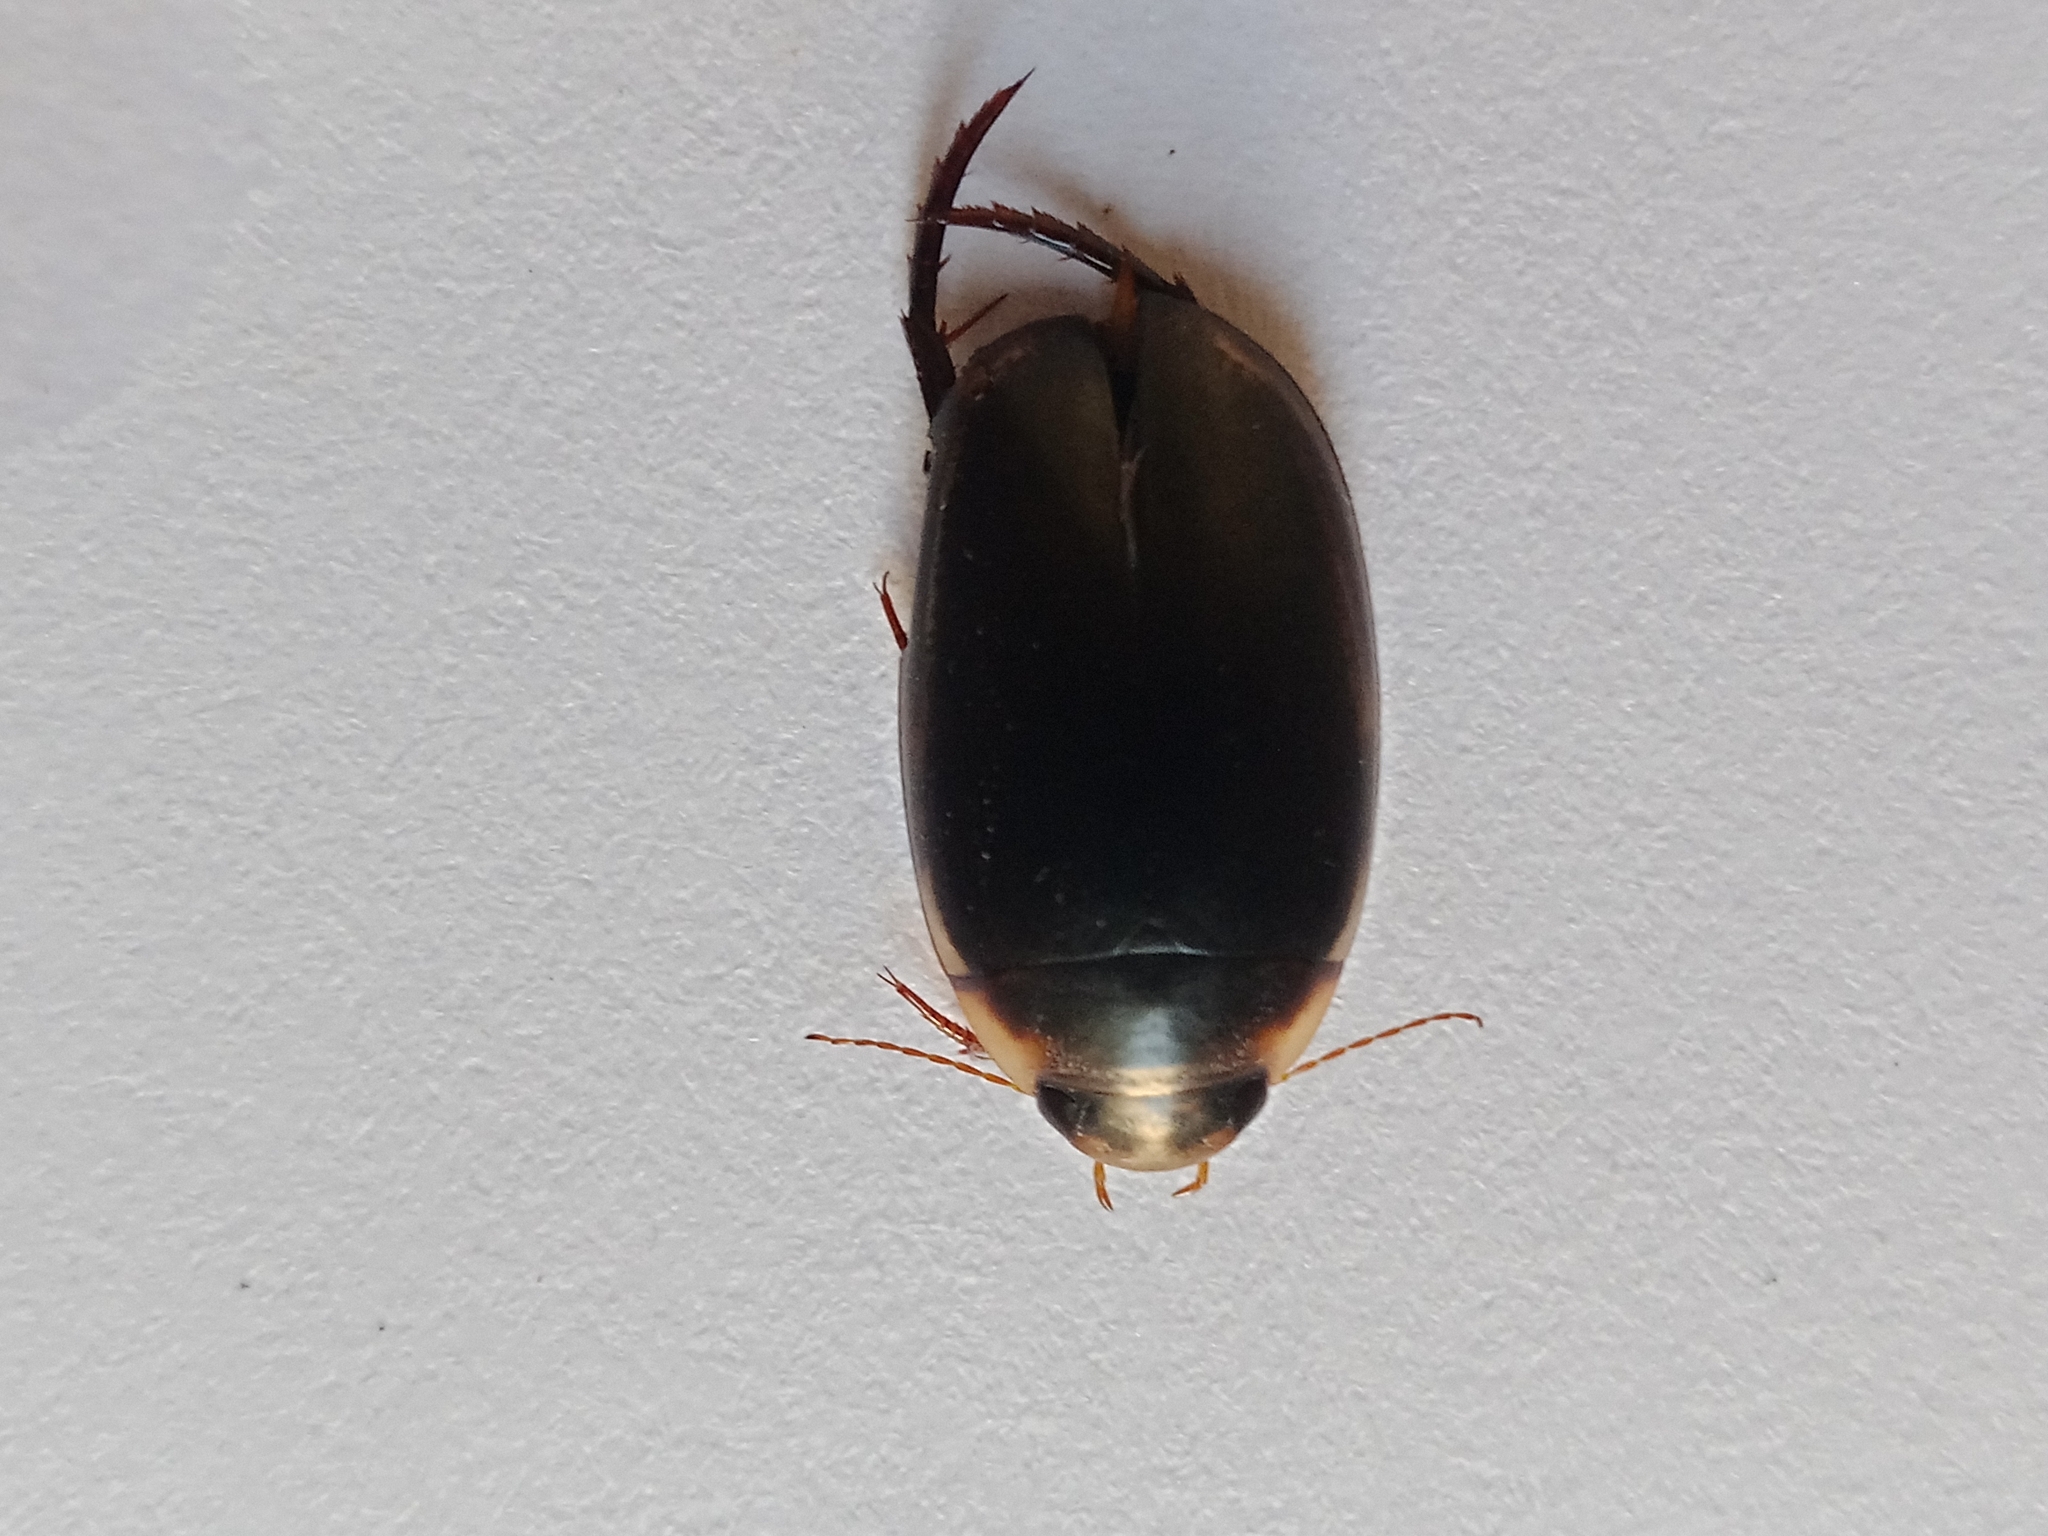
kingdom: Animalia
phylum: Arthropoda
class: Insecta
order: Coleoptera
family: Dytiscidae
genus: Hydaticus
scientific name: Hydaticus seminiger
